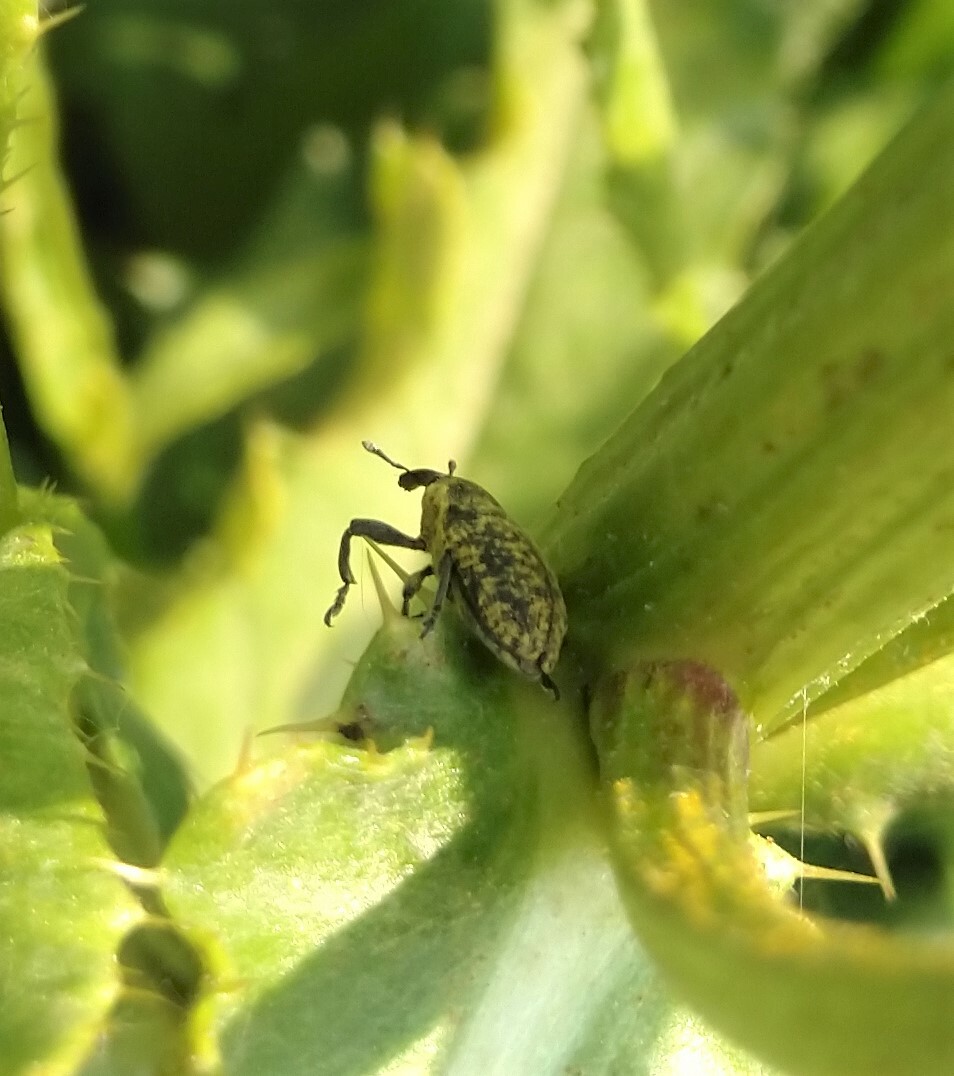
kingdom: Animalia
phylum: Arthropoda
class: Insecta
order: Coleoptera
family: Curculionidae
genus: Larinus
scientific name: Larinus carlinae
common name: Weevil
